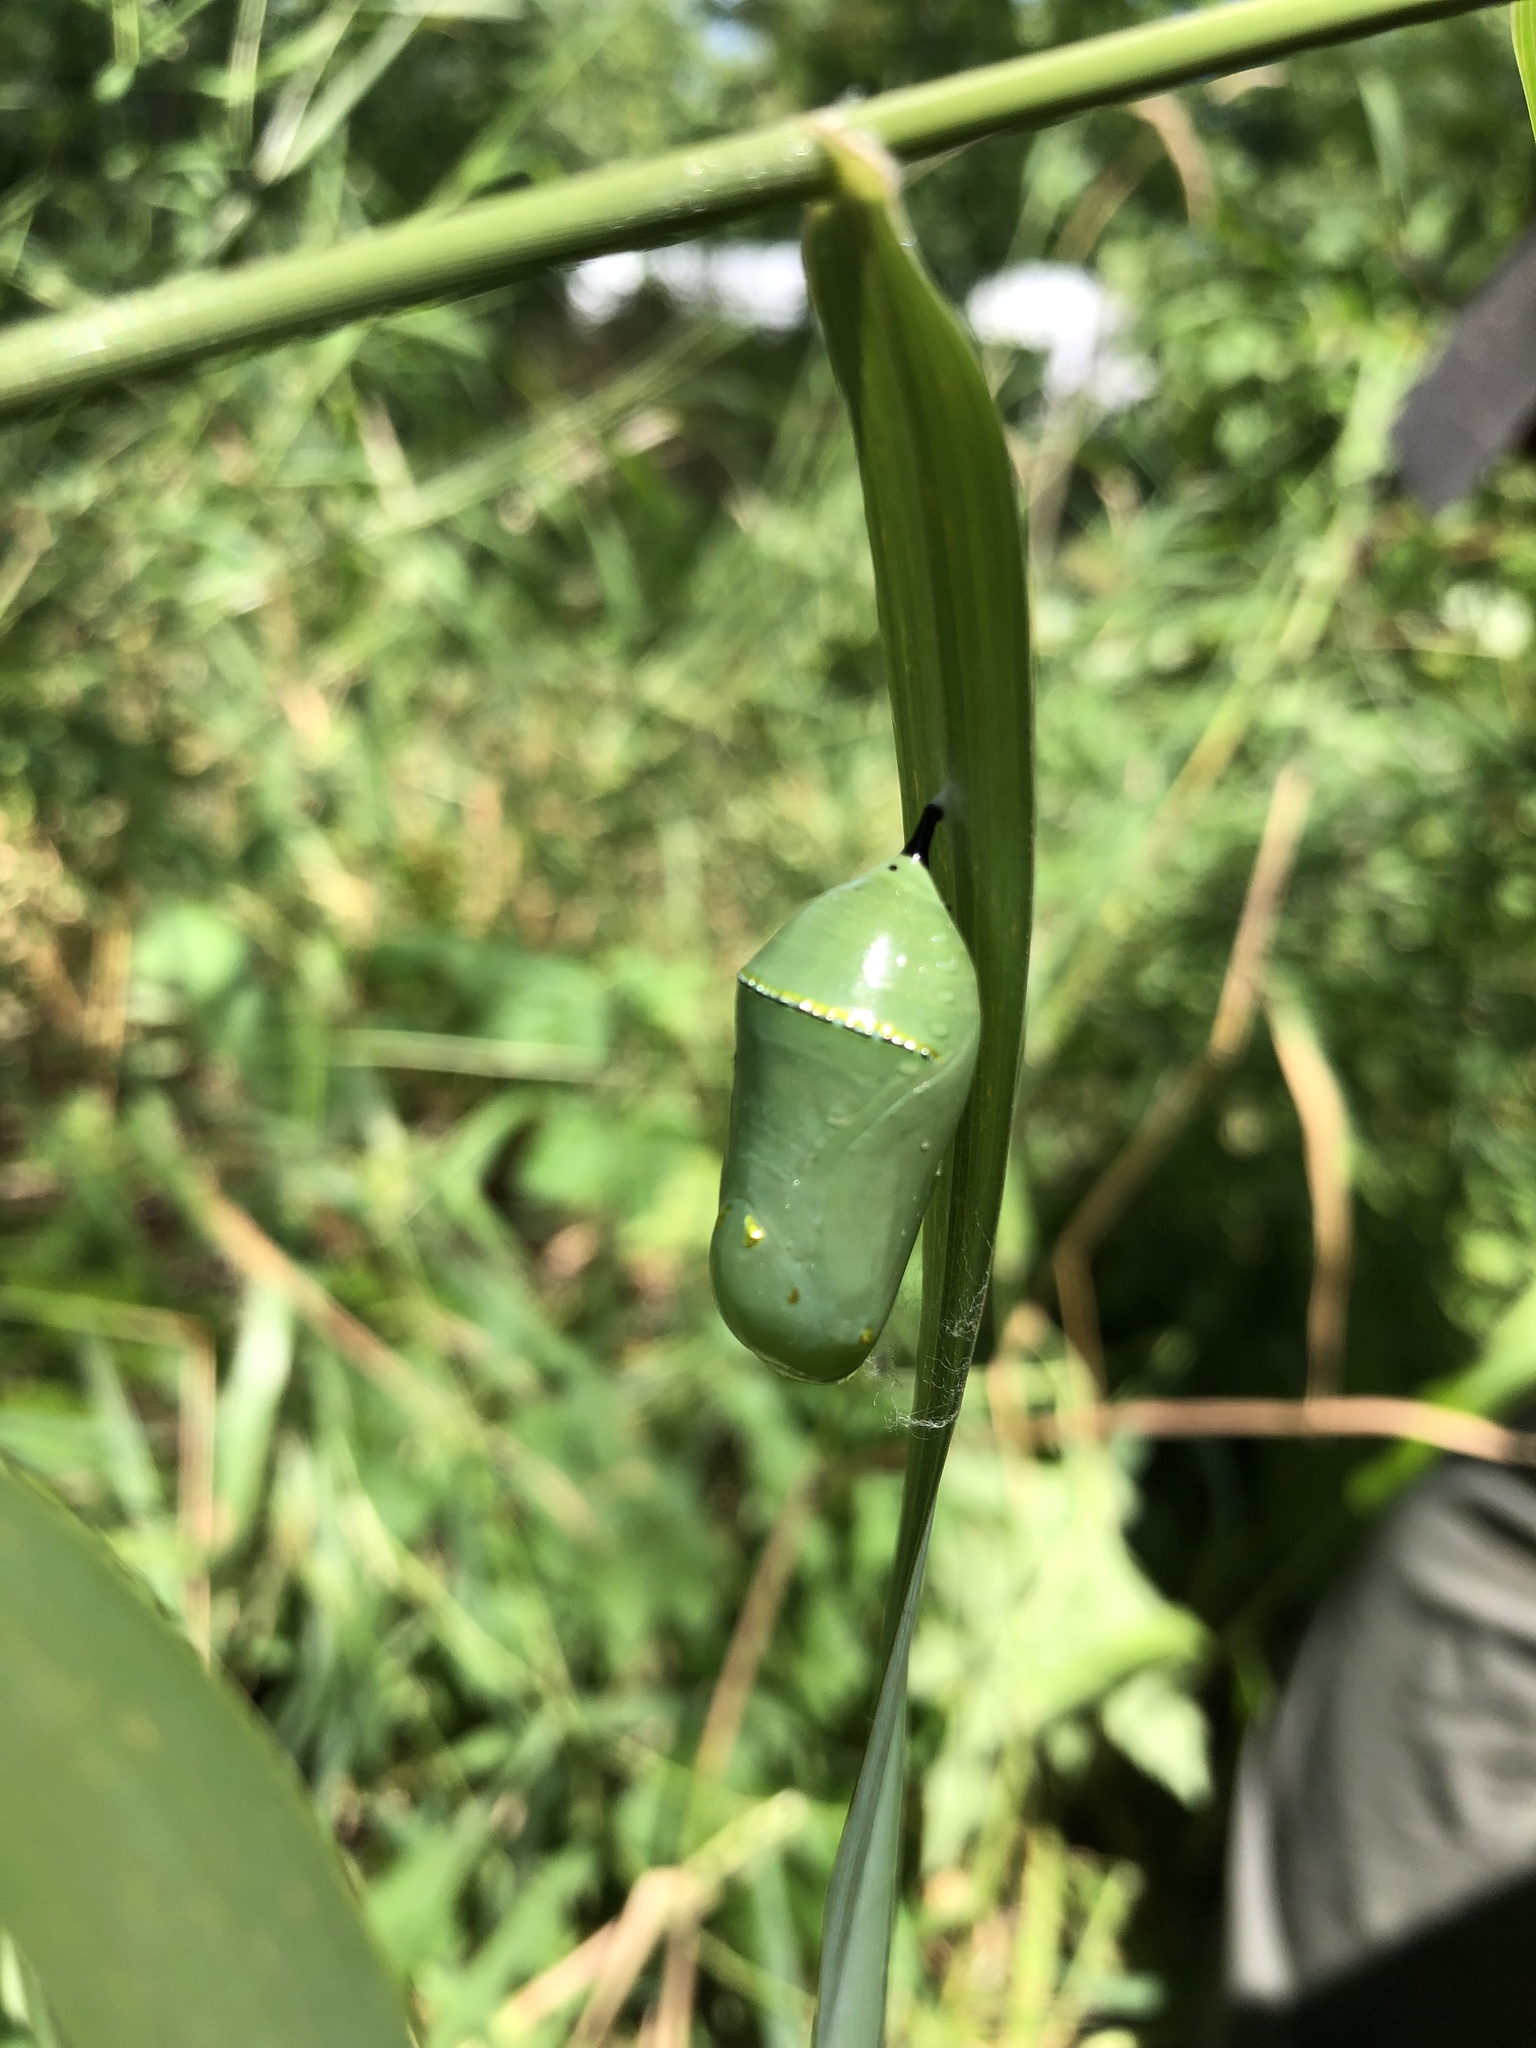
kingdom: Animalia
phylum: Arthropoda
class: Insecta
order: Lepidoptera
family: Nymphalidae
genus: Danaus
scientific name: Danaus plexippus
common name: Monarch
